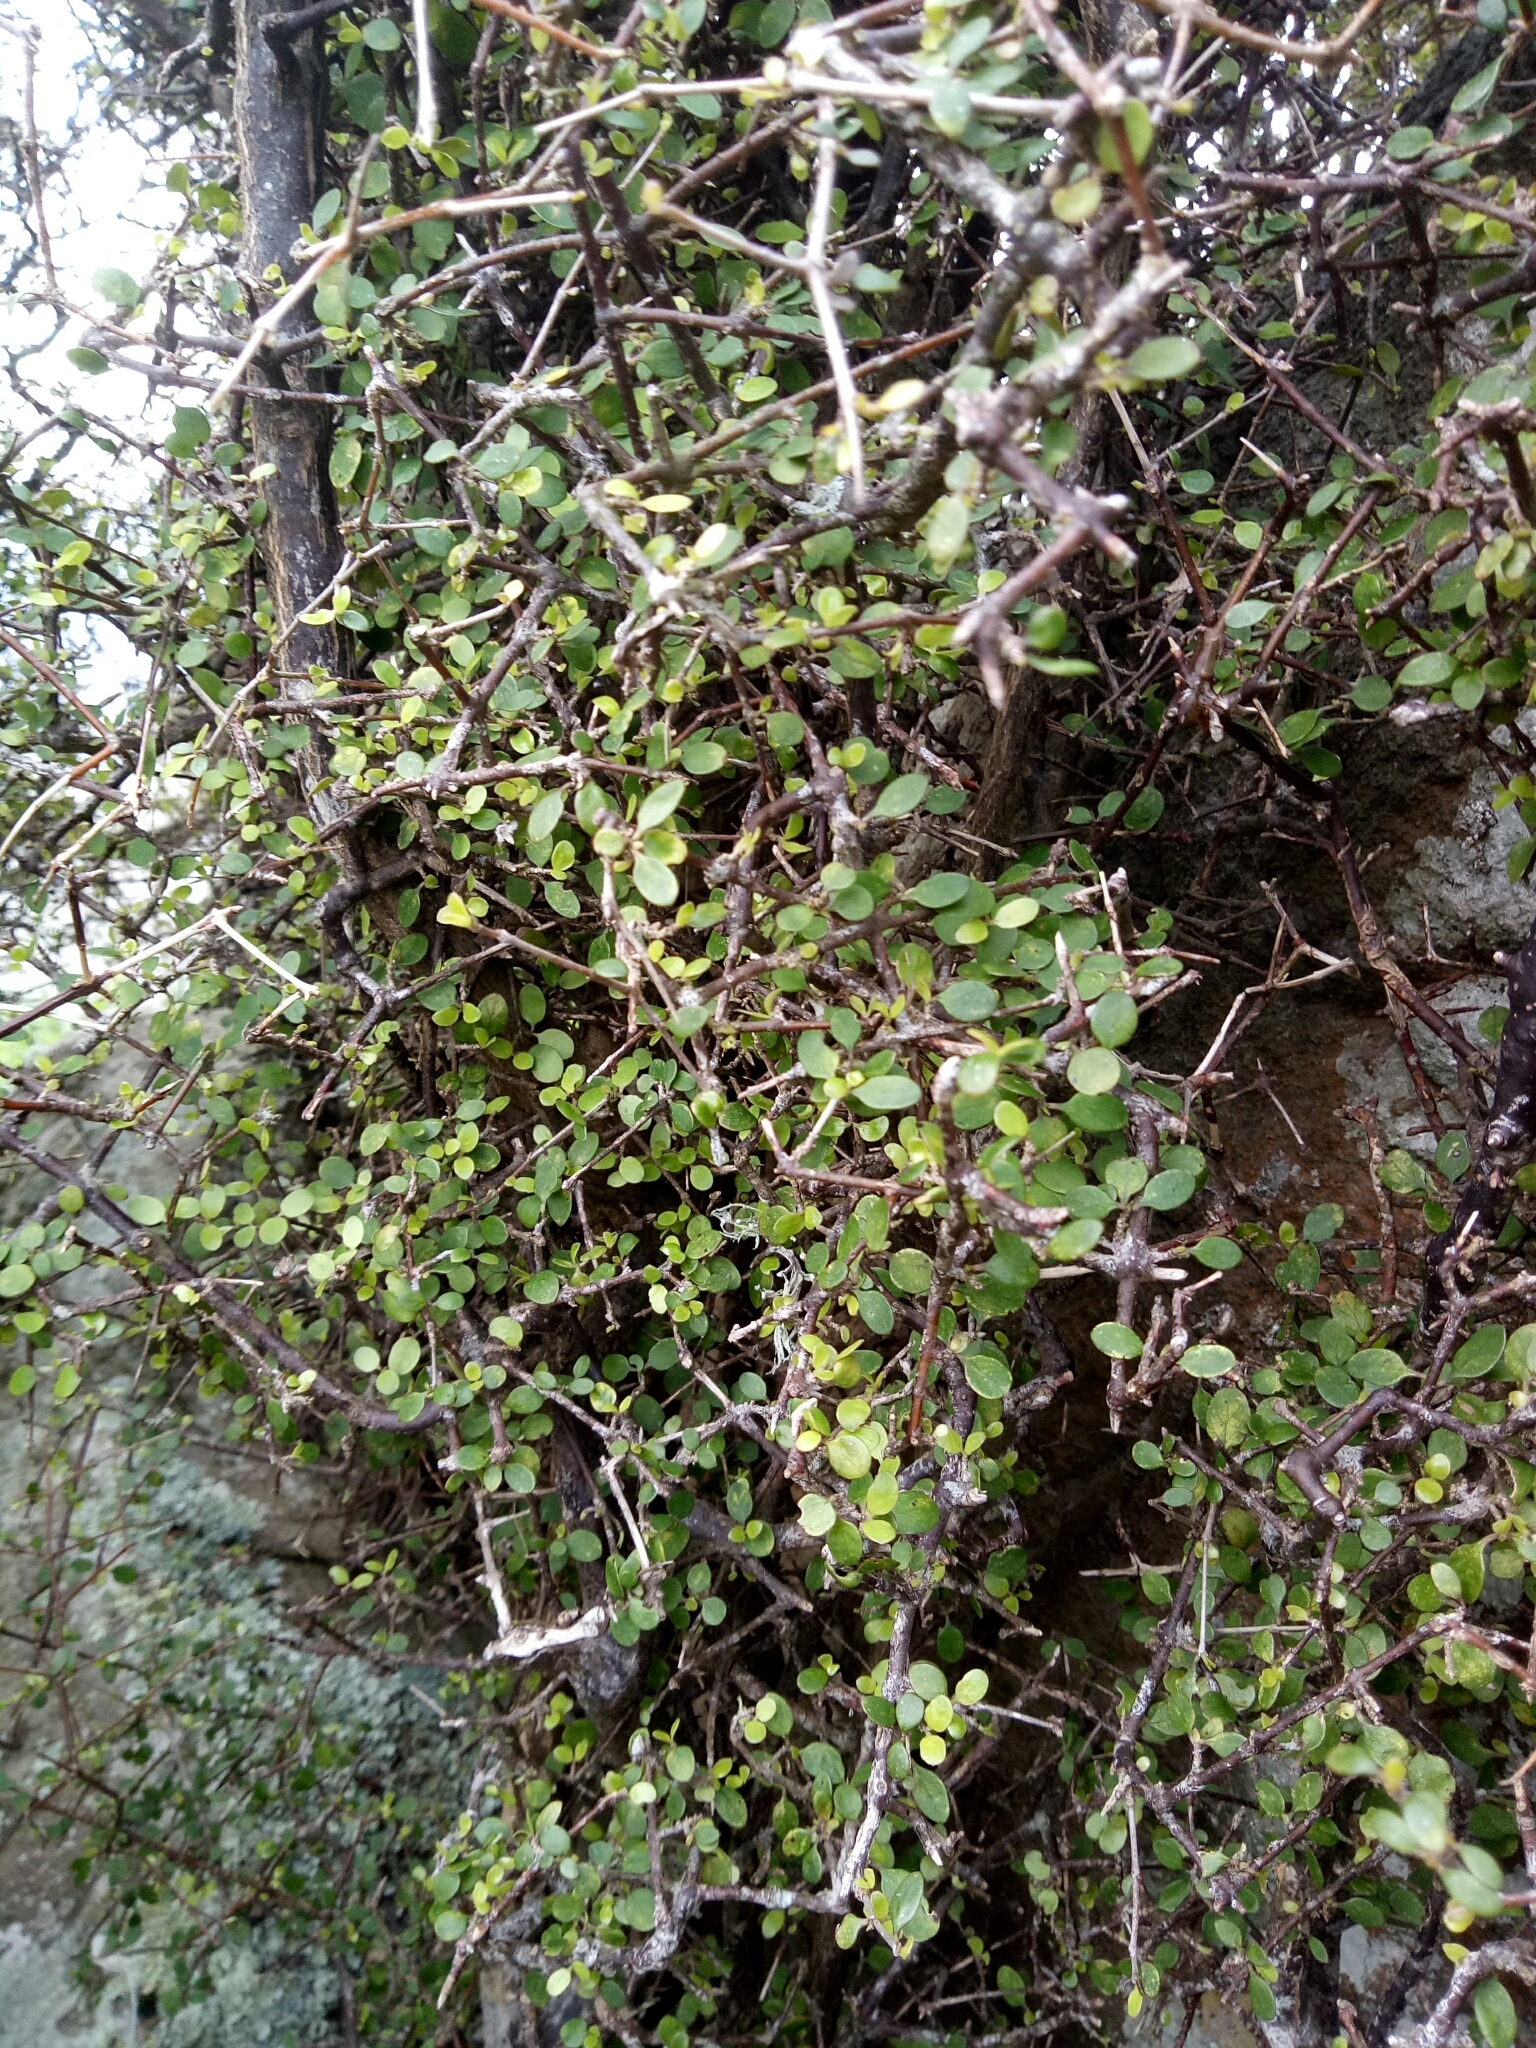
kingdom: Plantae
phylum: Tracheophyta
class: Magnoliopsida
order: Gentianales
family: Rubiaceae
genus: Coprosma
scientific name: Coprosma crassifolia
